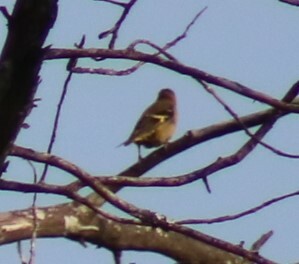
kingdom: Animalia
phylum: Chordata
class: Aves
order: Passeriformes
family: Thraupidae
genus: Thraupis
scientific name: Thraupis abbas
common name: Yellow-winged tanager
